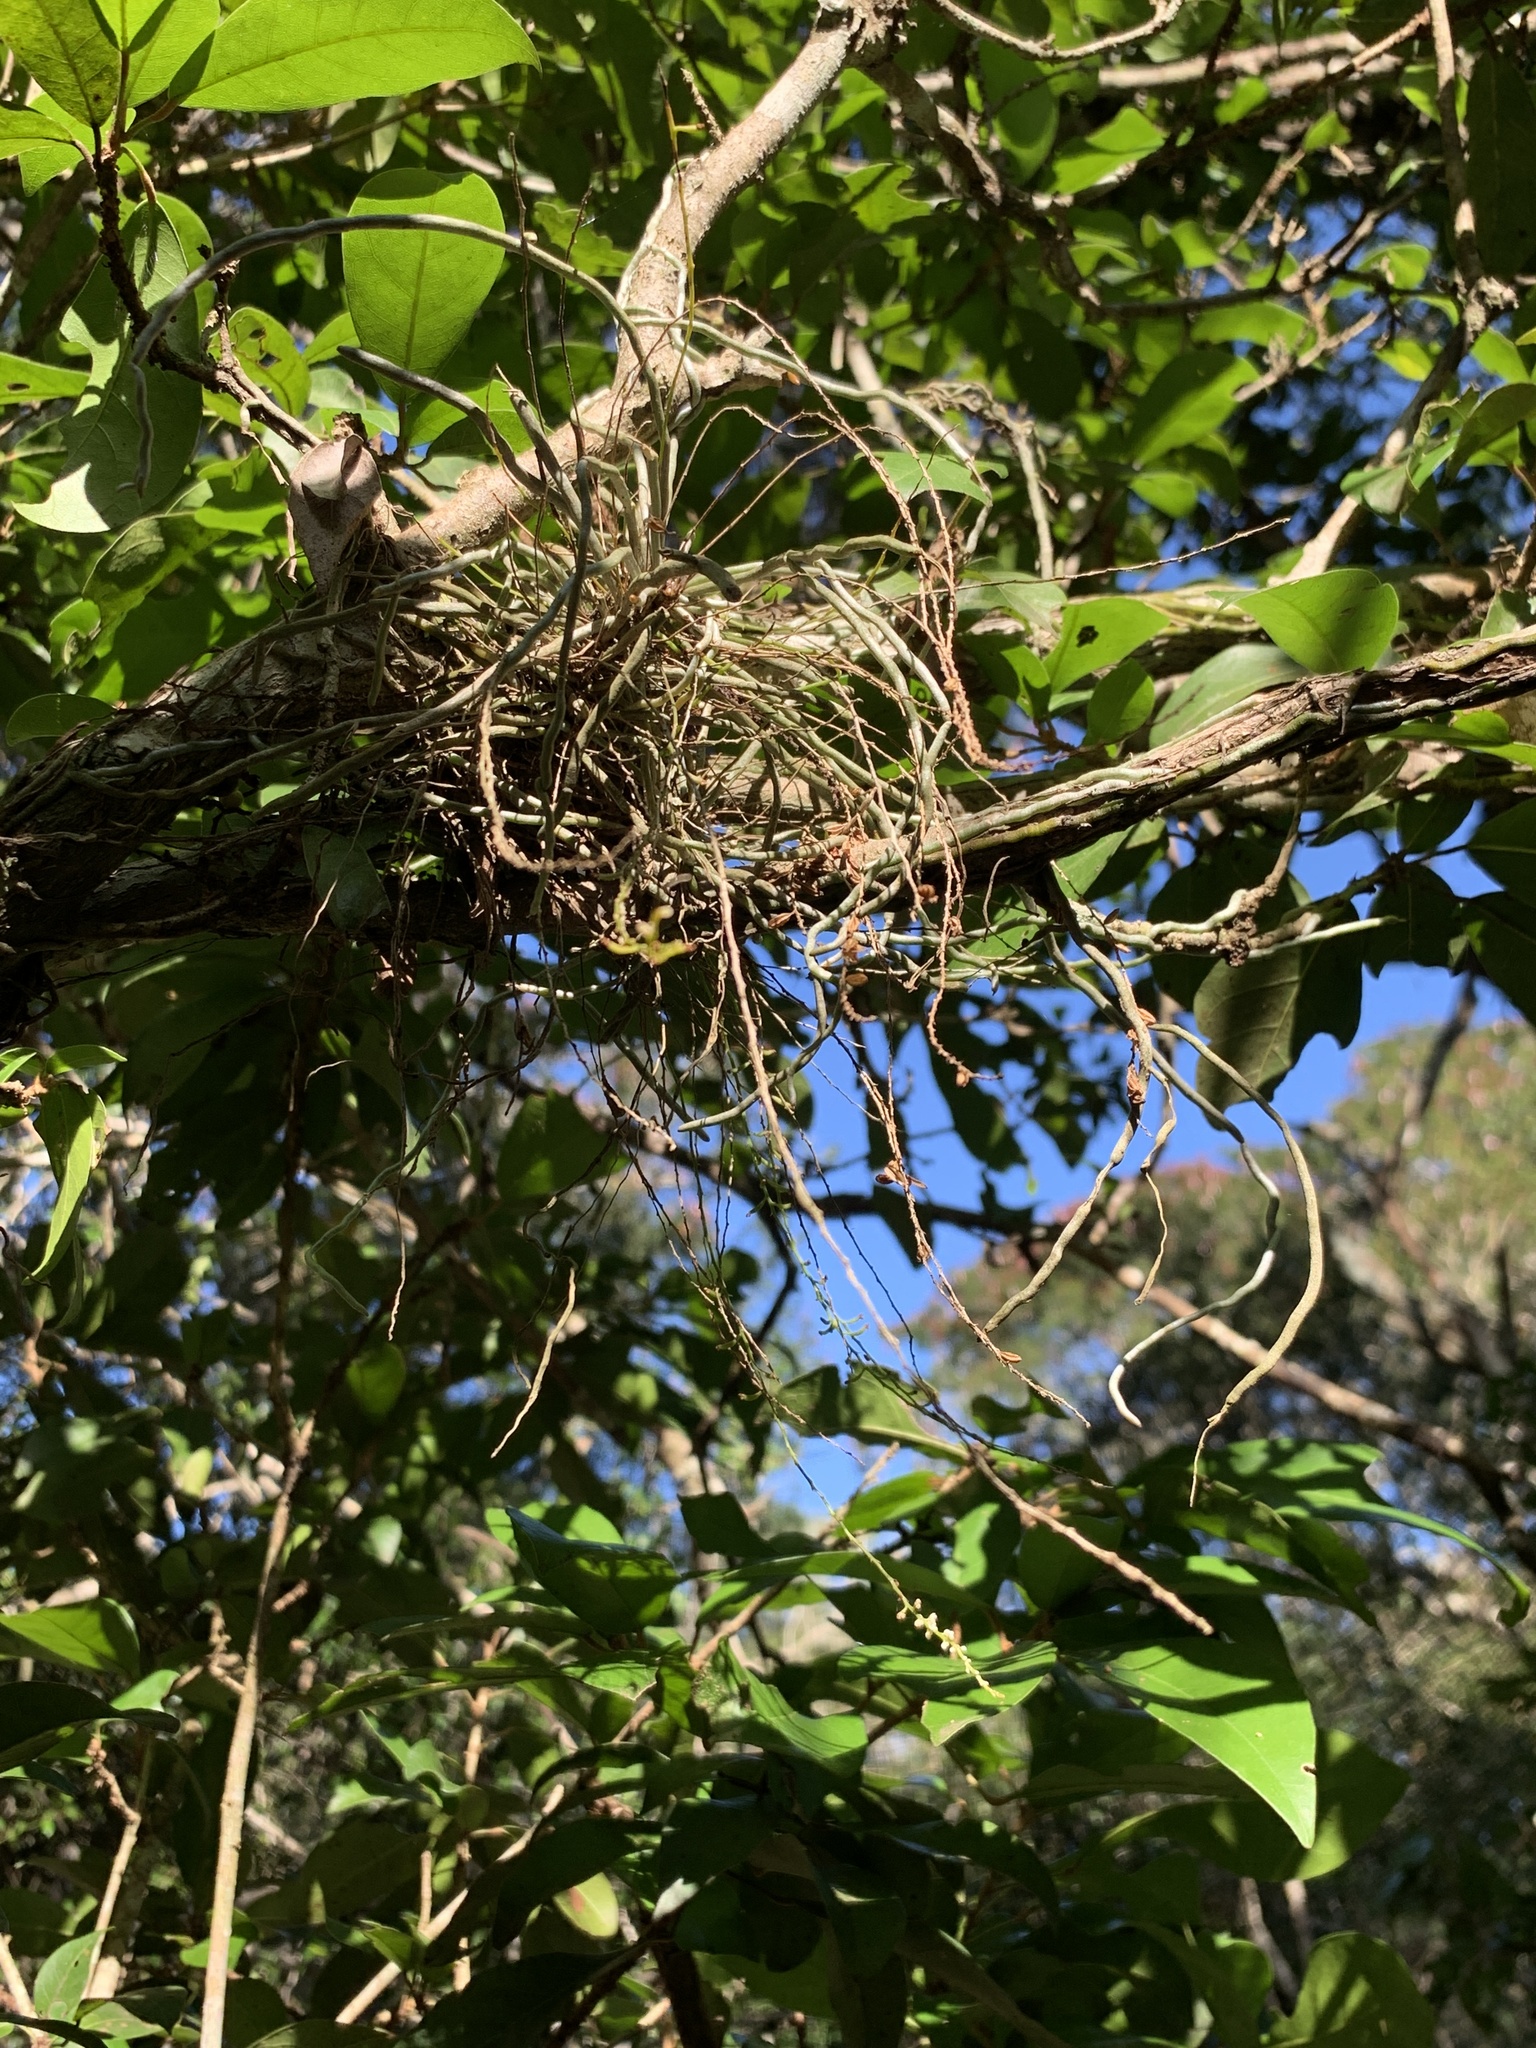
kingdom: Plantae
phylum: Tracheophyta
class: Liliopsida
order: Asparagales
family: Orchidaceae
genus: Microcoelia
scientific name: Microcoelia exilis
